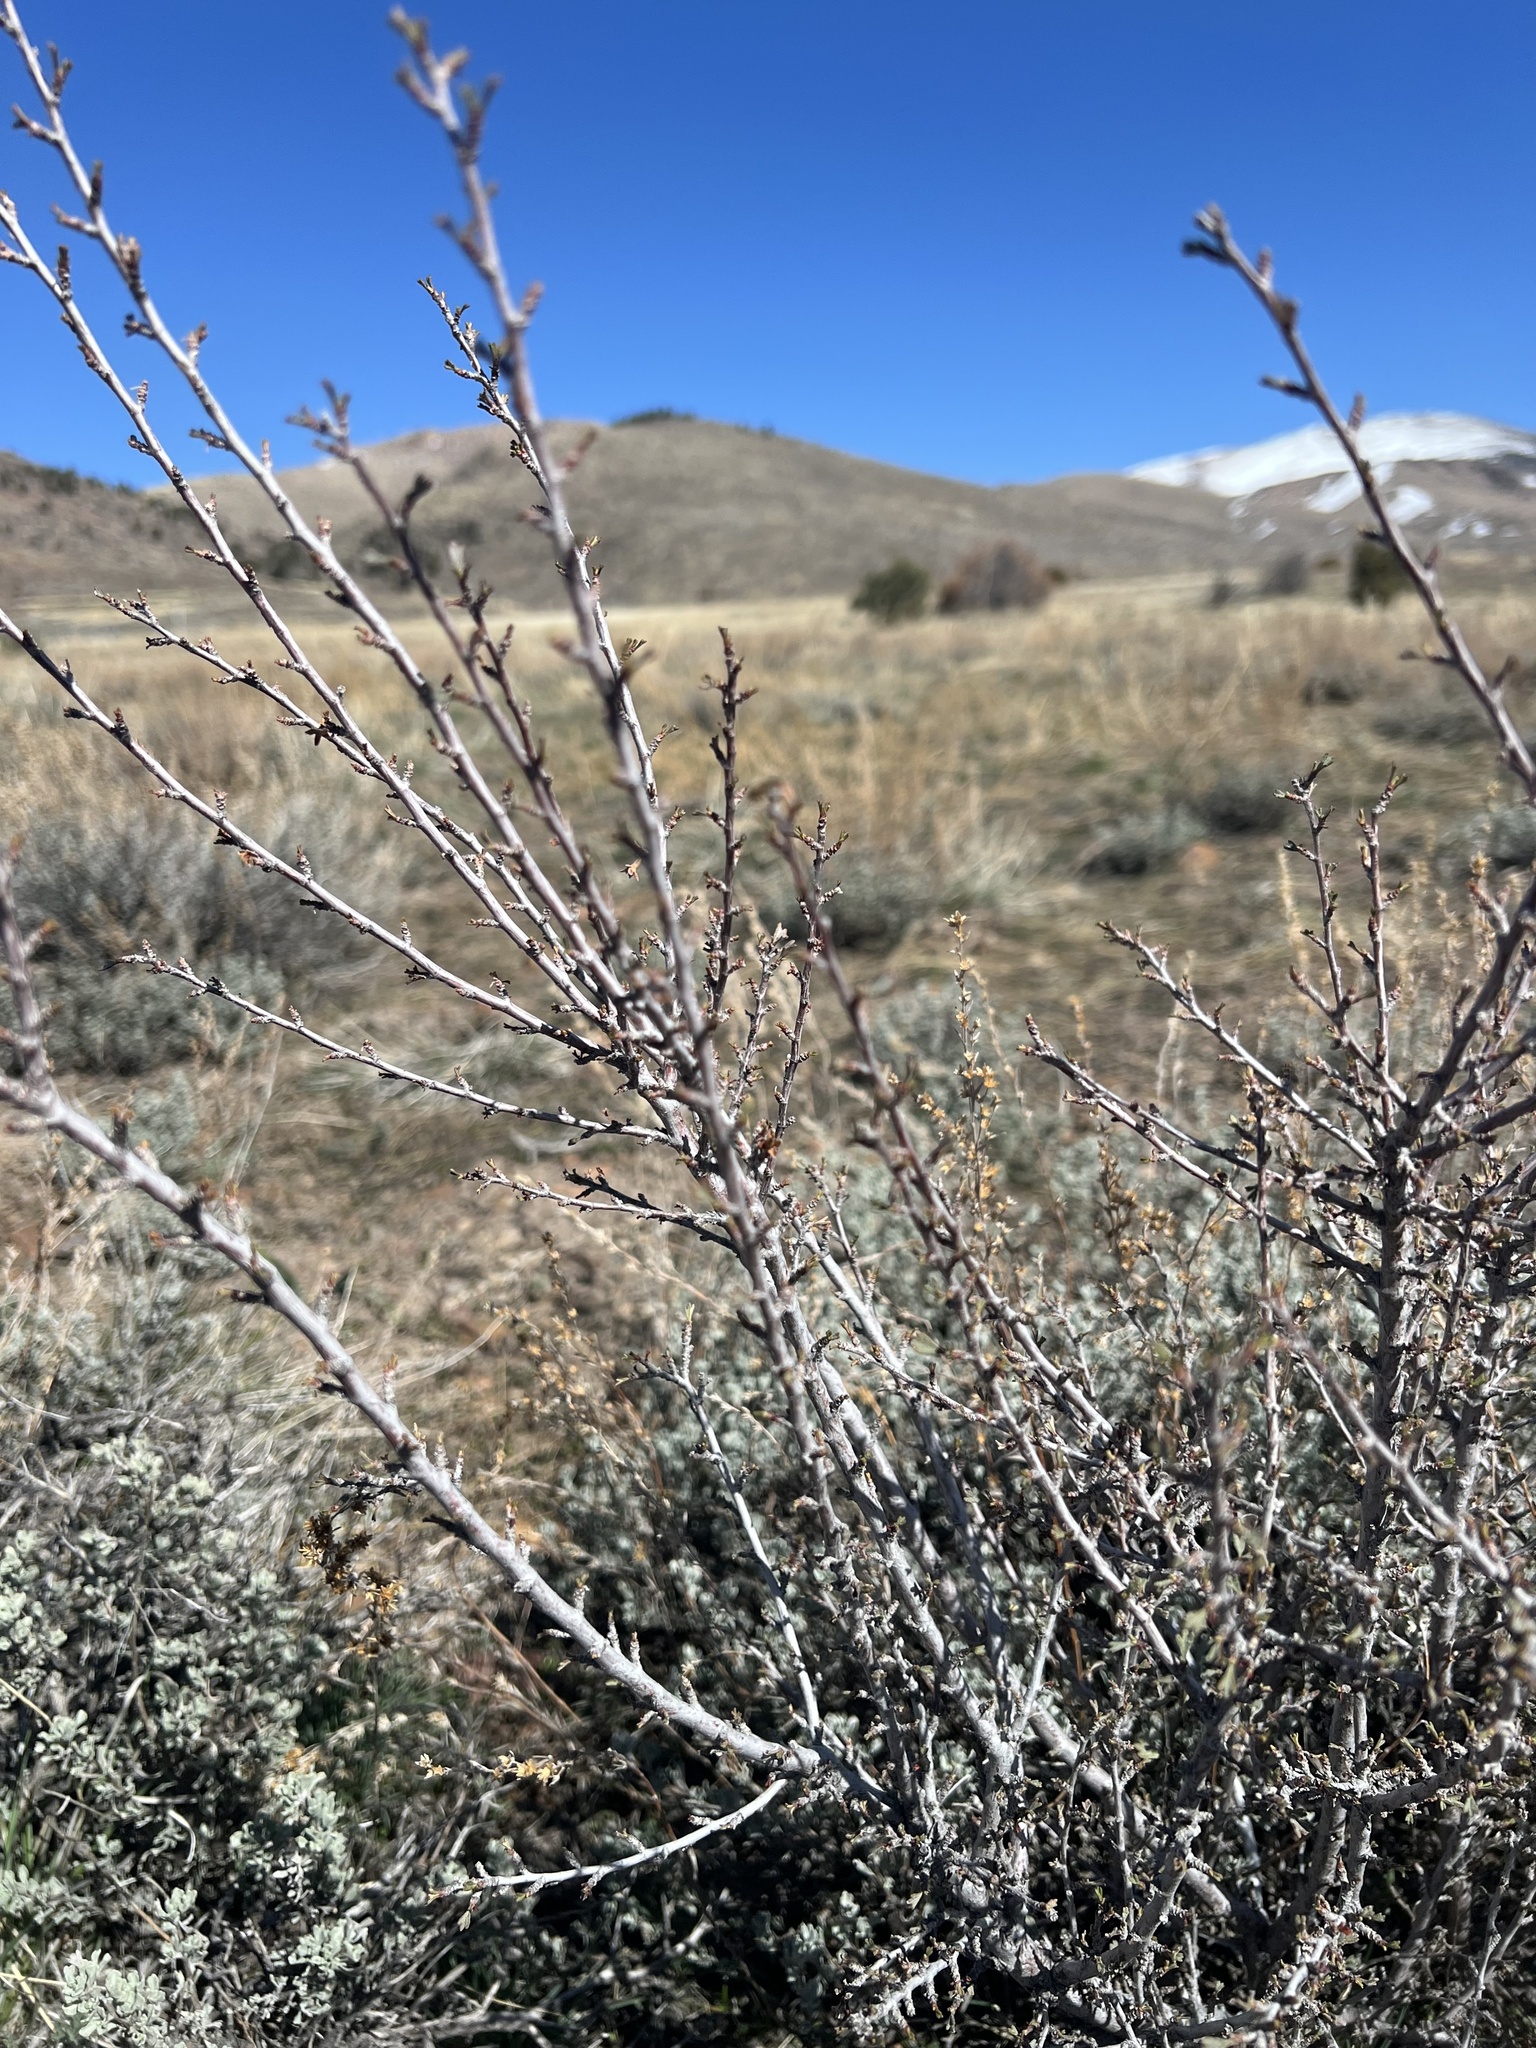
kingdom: Plantae
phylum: Tracheophyta
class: Magnoliopsida
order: Rosales
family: Rosaceae
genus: Purshia
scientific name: Purshia tridentata
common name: Antelope bitterbrush
